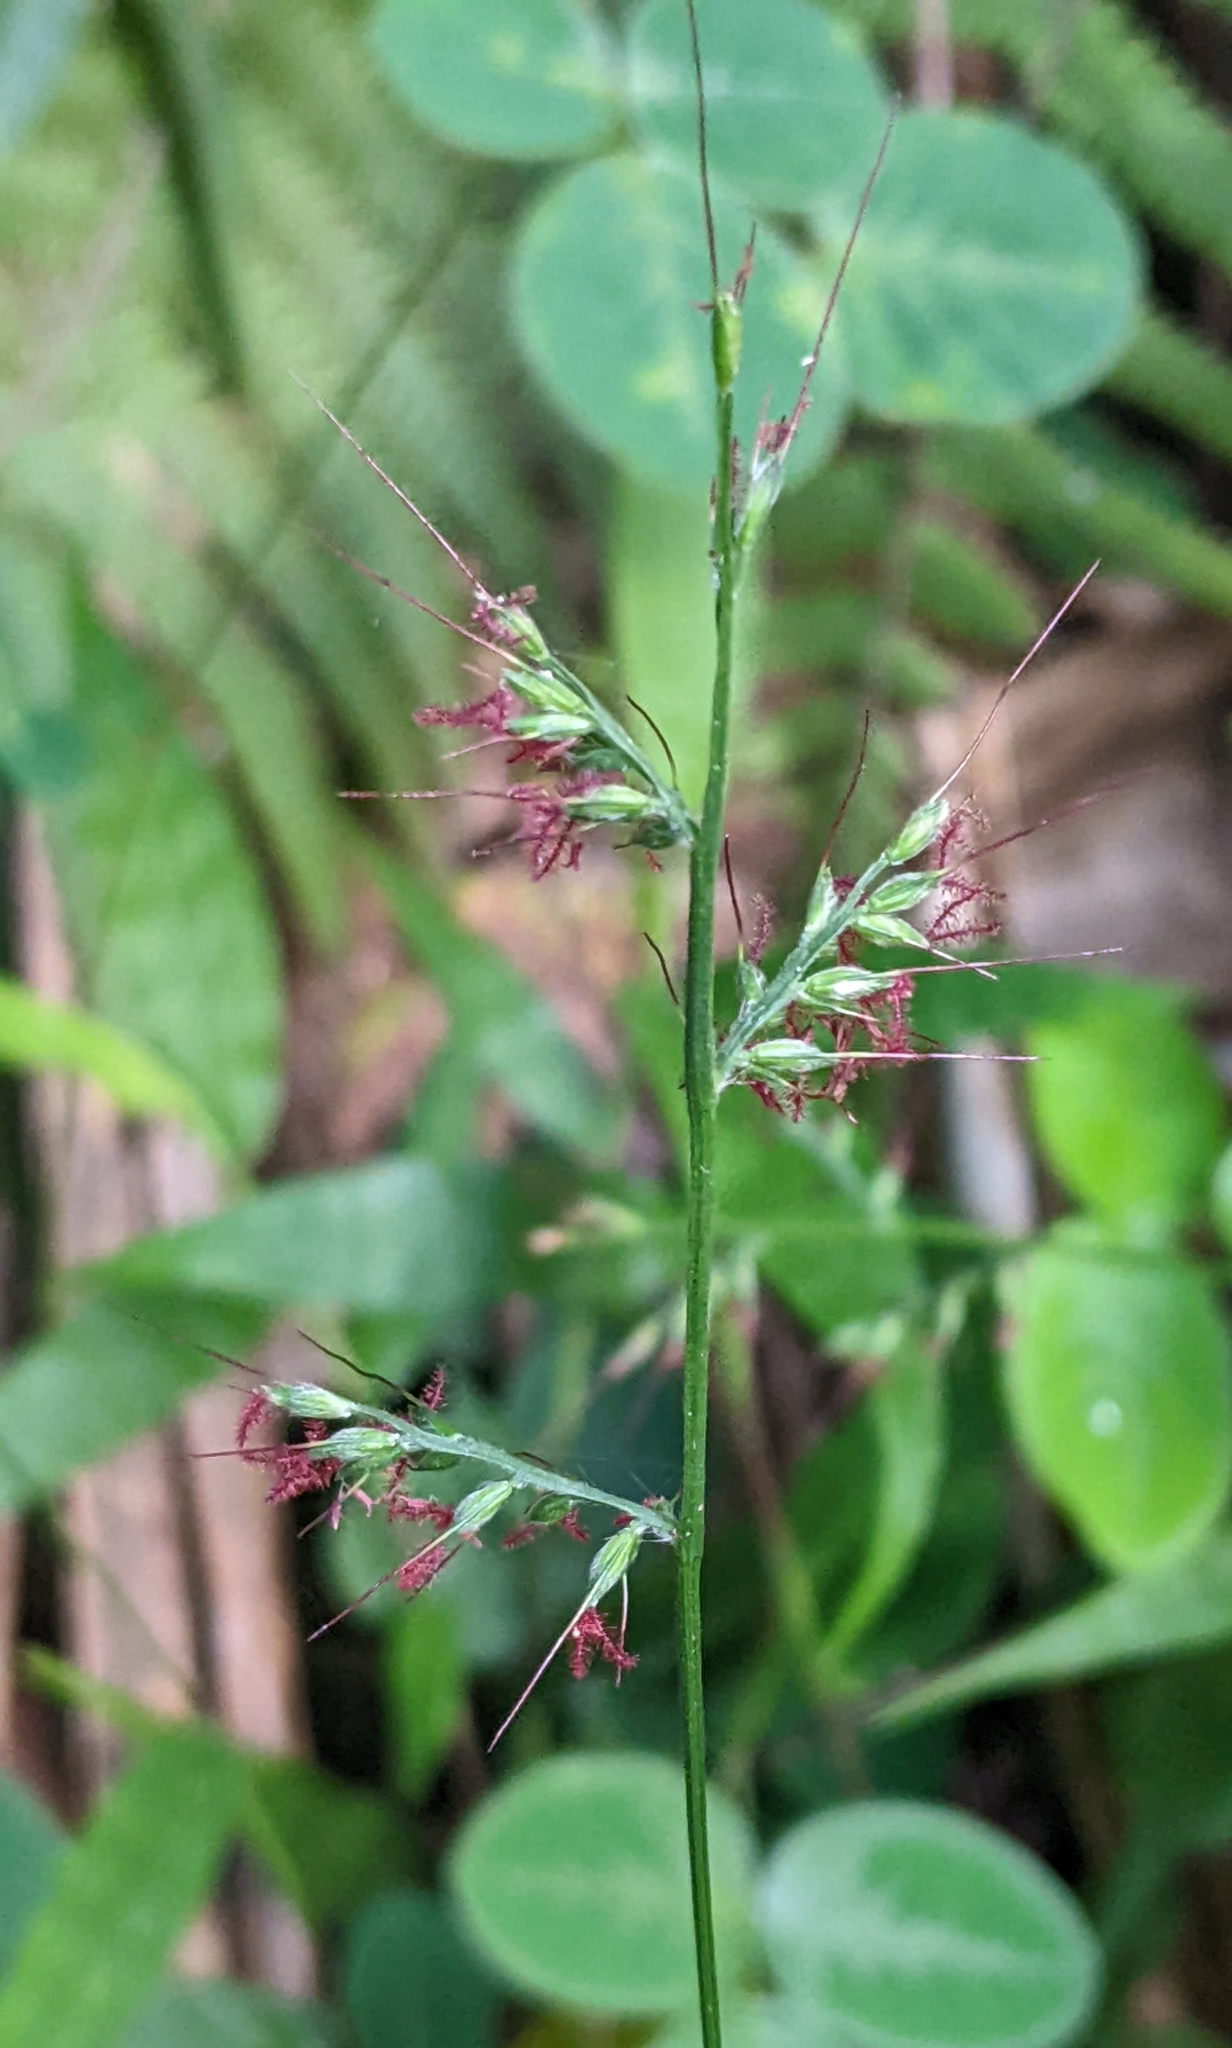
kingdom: Plantae
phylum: Tracheophyta
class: Liliopsida
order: Poales
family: Poaceae
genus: Oplismenus
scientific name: Oplismenus hirtellus
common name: Basketgrass
